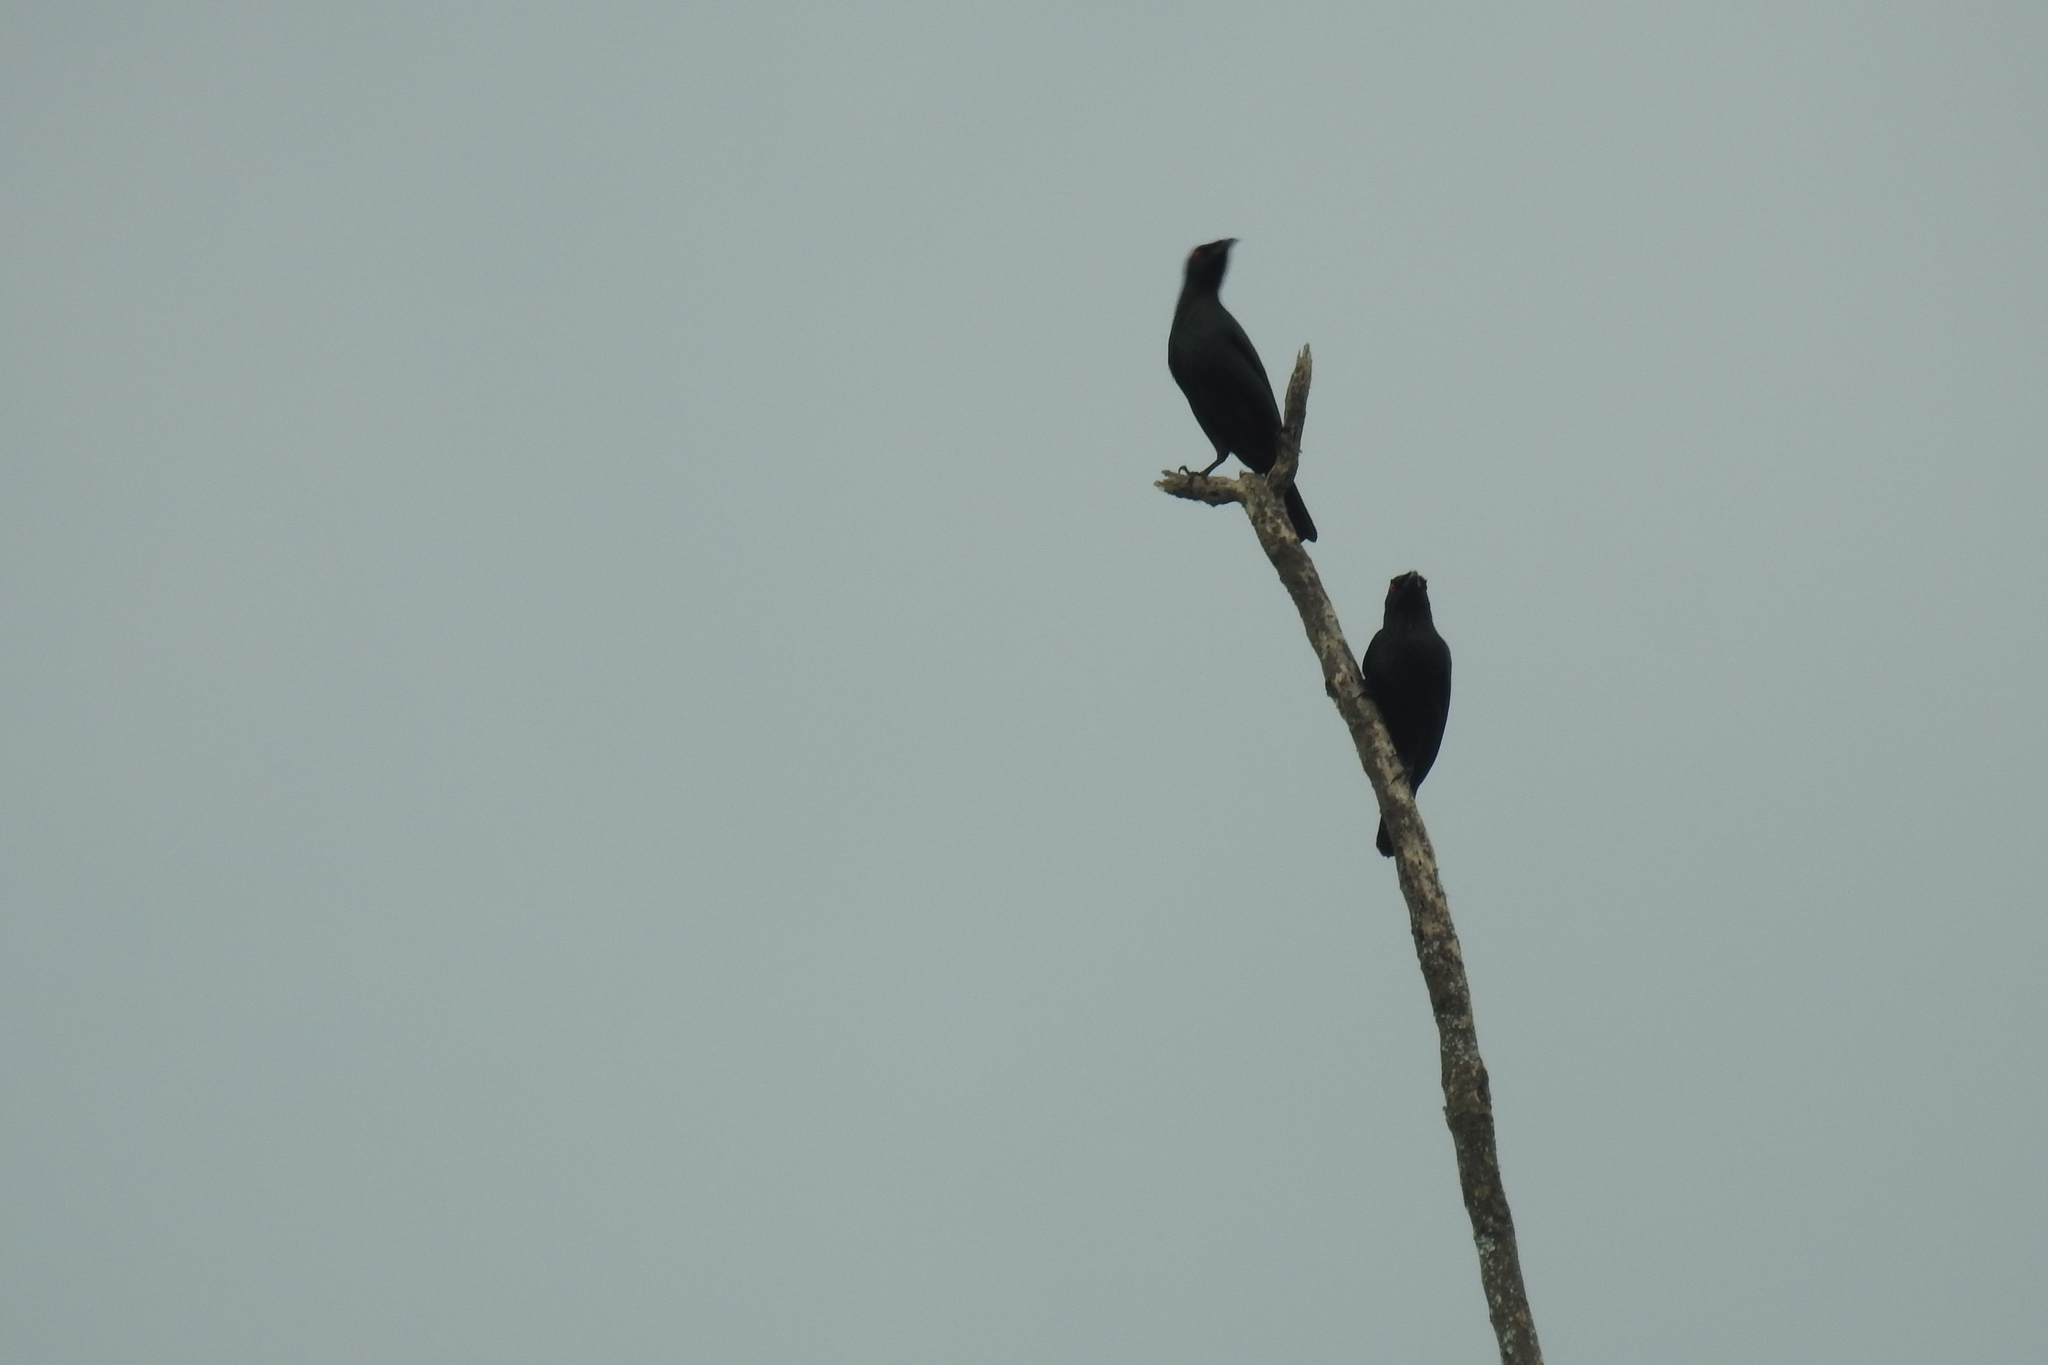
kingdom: Animalia
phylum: Chordata
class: Aves
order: Passeriformes
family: Sturnidae
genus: Aplonis
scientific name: Aplonis panayensis
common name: Asian glossy starling
